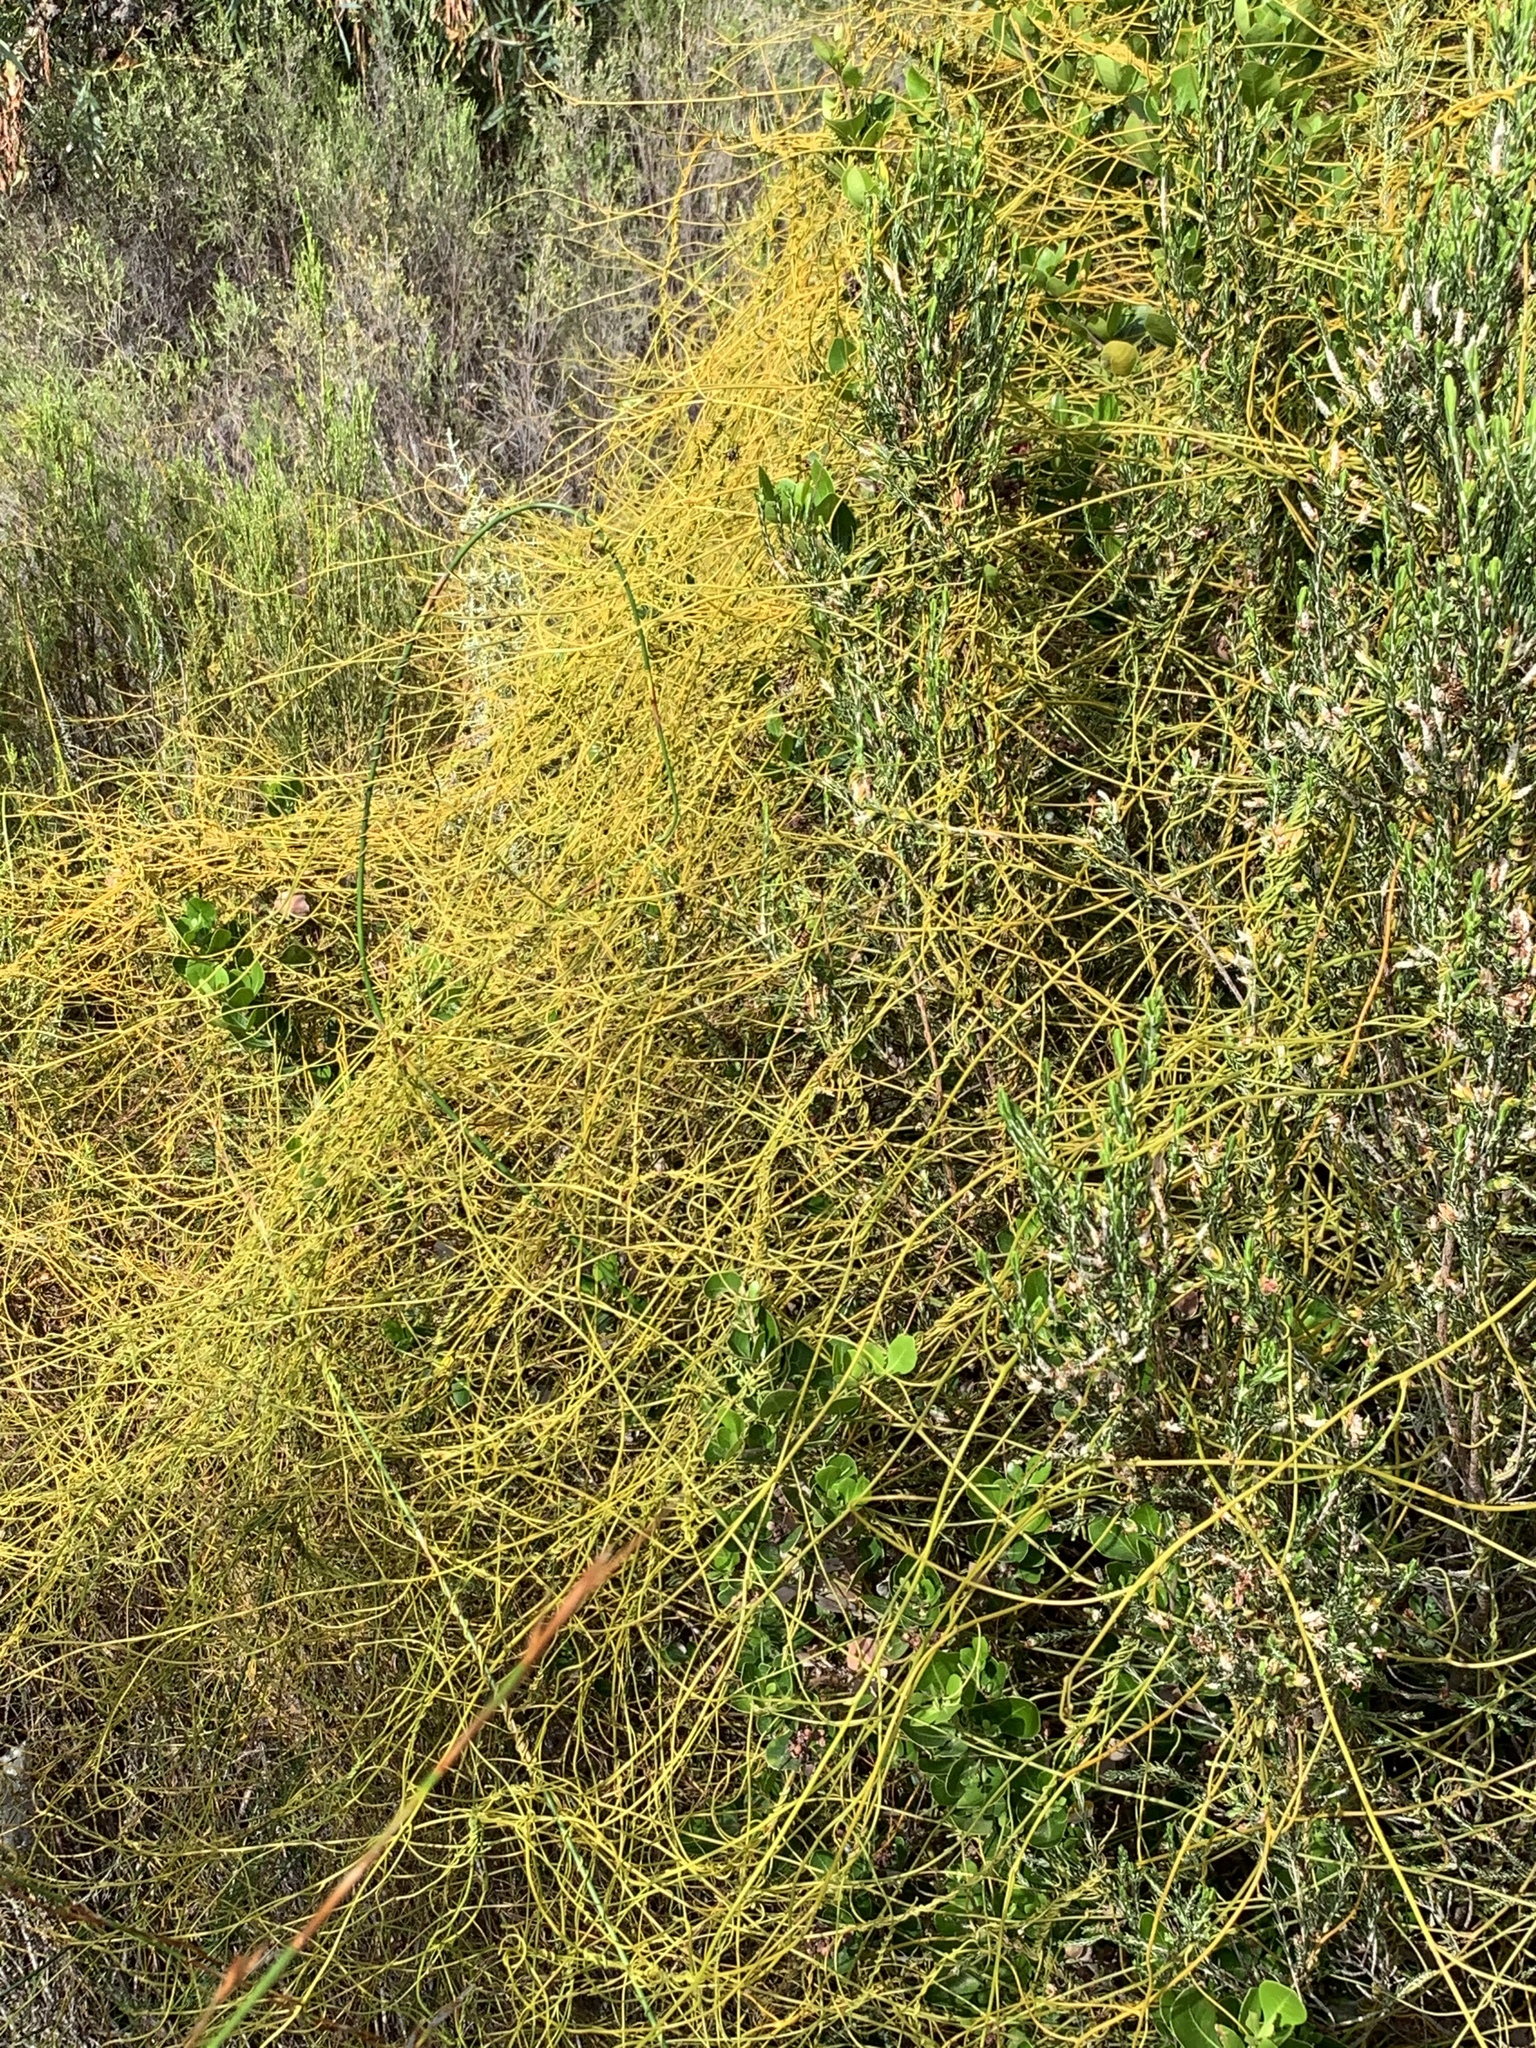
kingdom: Plantae
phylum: Tracheophyta
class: Magnoliopsida
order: Laurales
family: Lauraceae
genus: Cassytha
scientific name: Cassytha ciliolata
